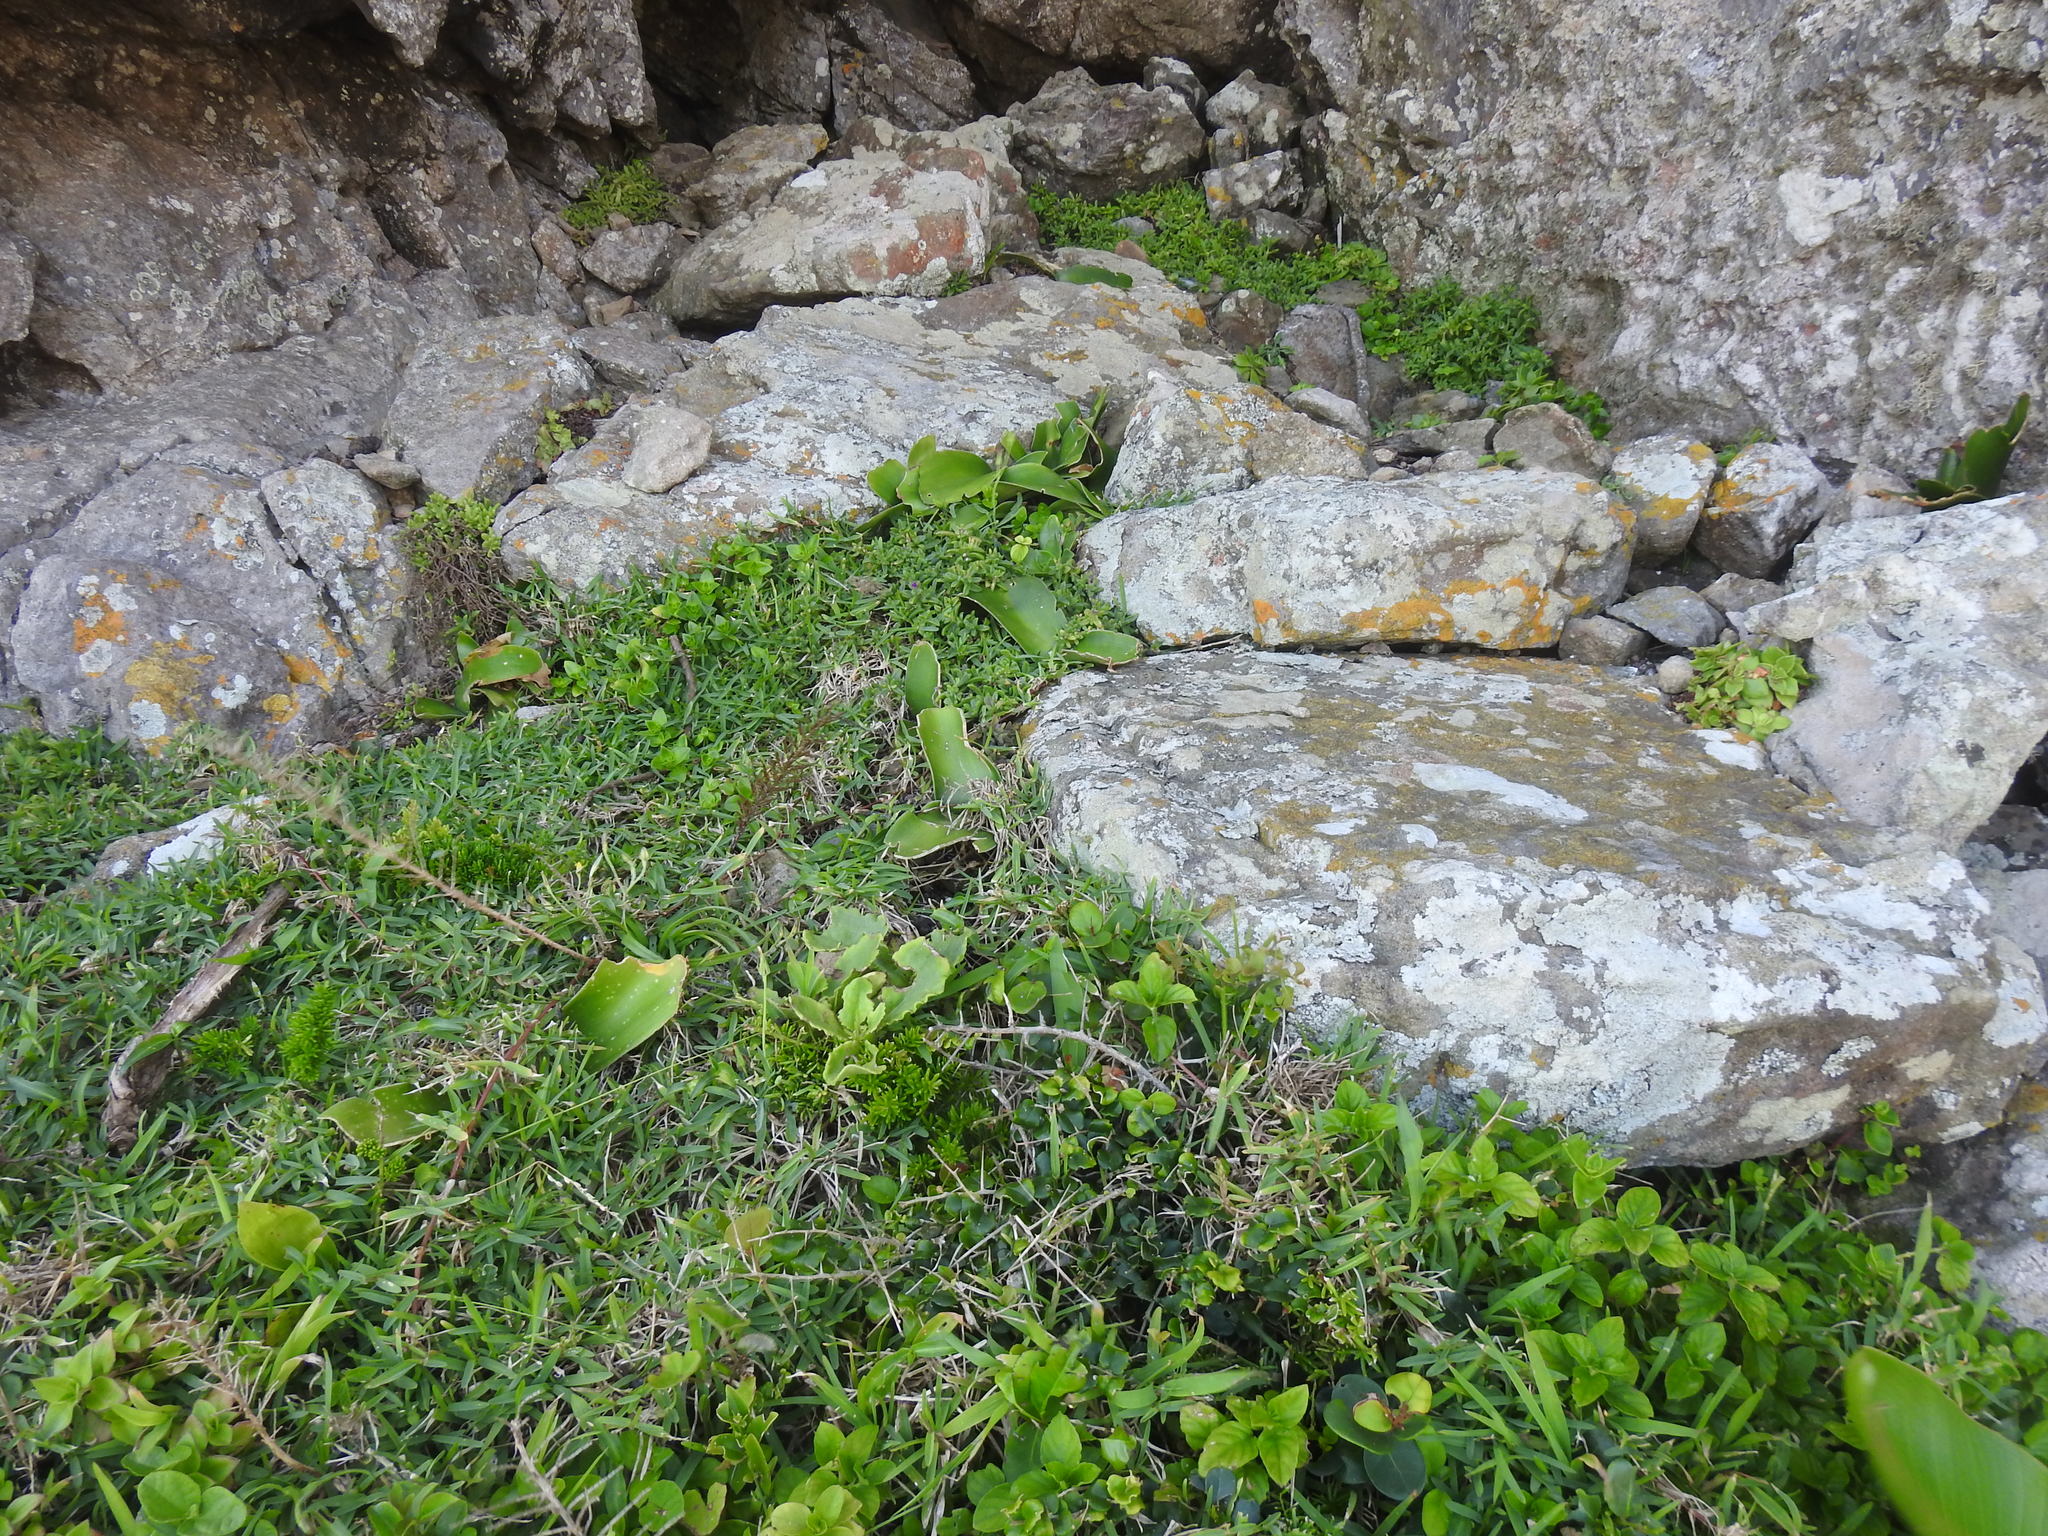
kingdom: Plantae
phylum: Tracheophyta
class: Liliopsida
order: Asparagales
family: Amaryllidaceae
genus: Haemanthus
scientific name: Haemanthus albiflos
